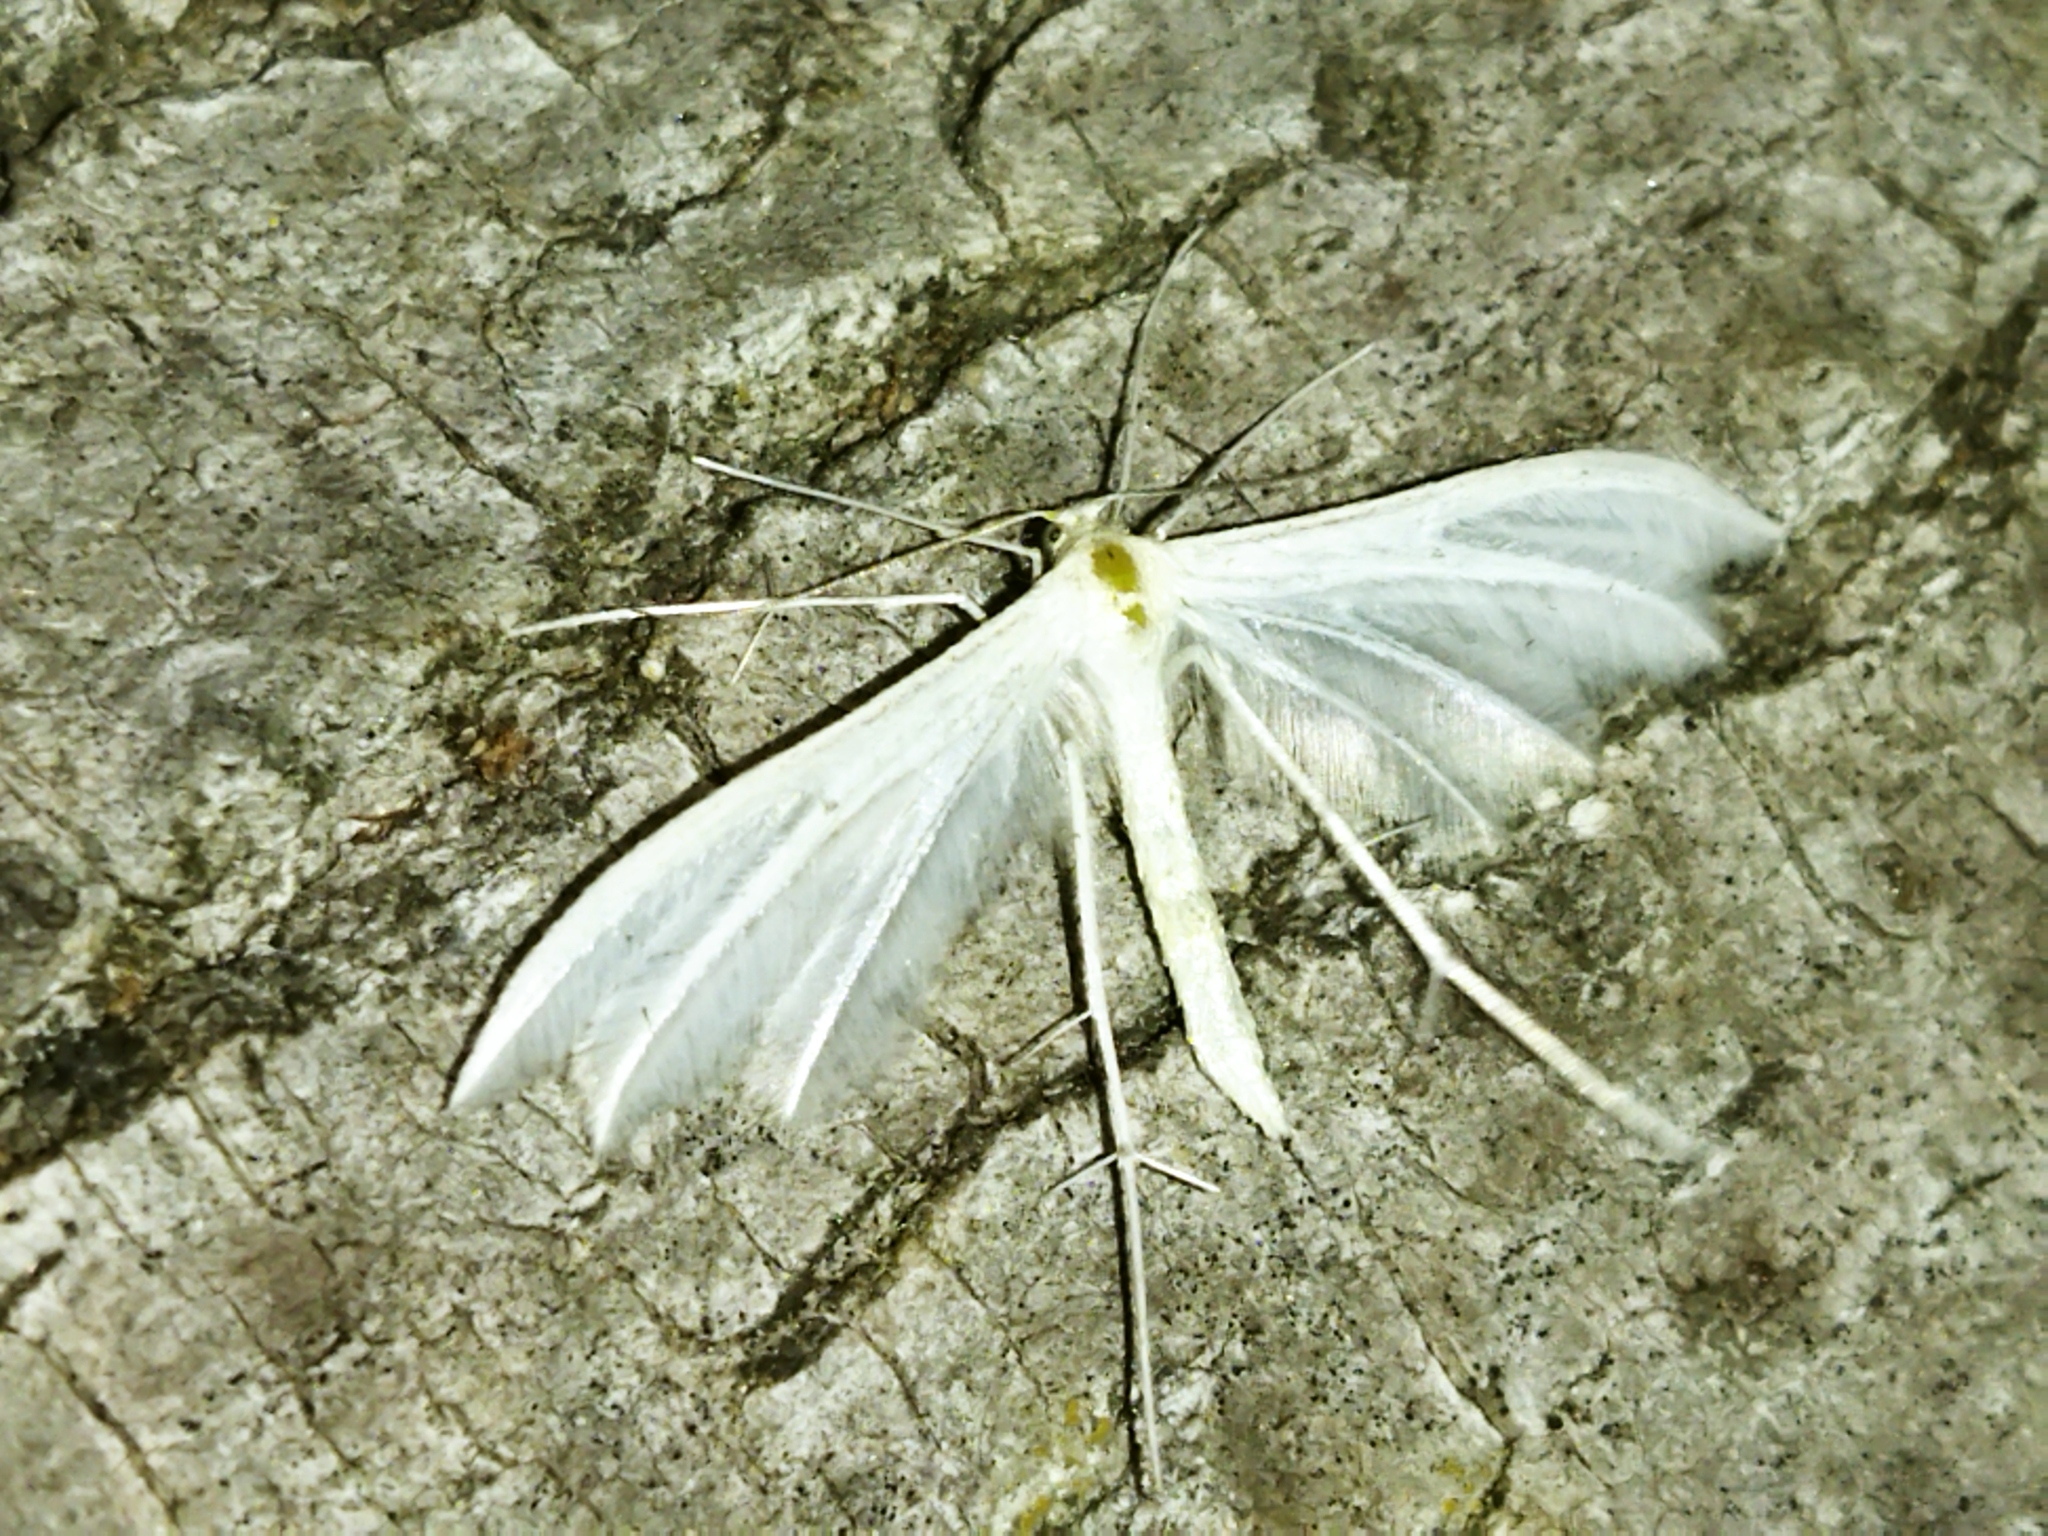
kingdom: Animalia
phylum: Arthropoda
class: Insecta
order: Lepidoptera
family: Pterophoridae
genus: Pterophorus
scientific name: Pterophorus pentadactyla
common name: White plume moth
